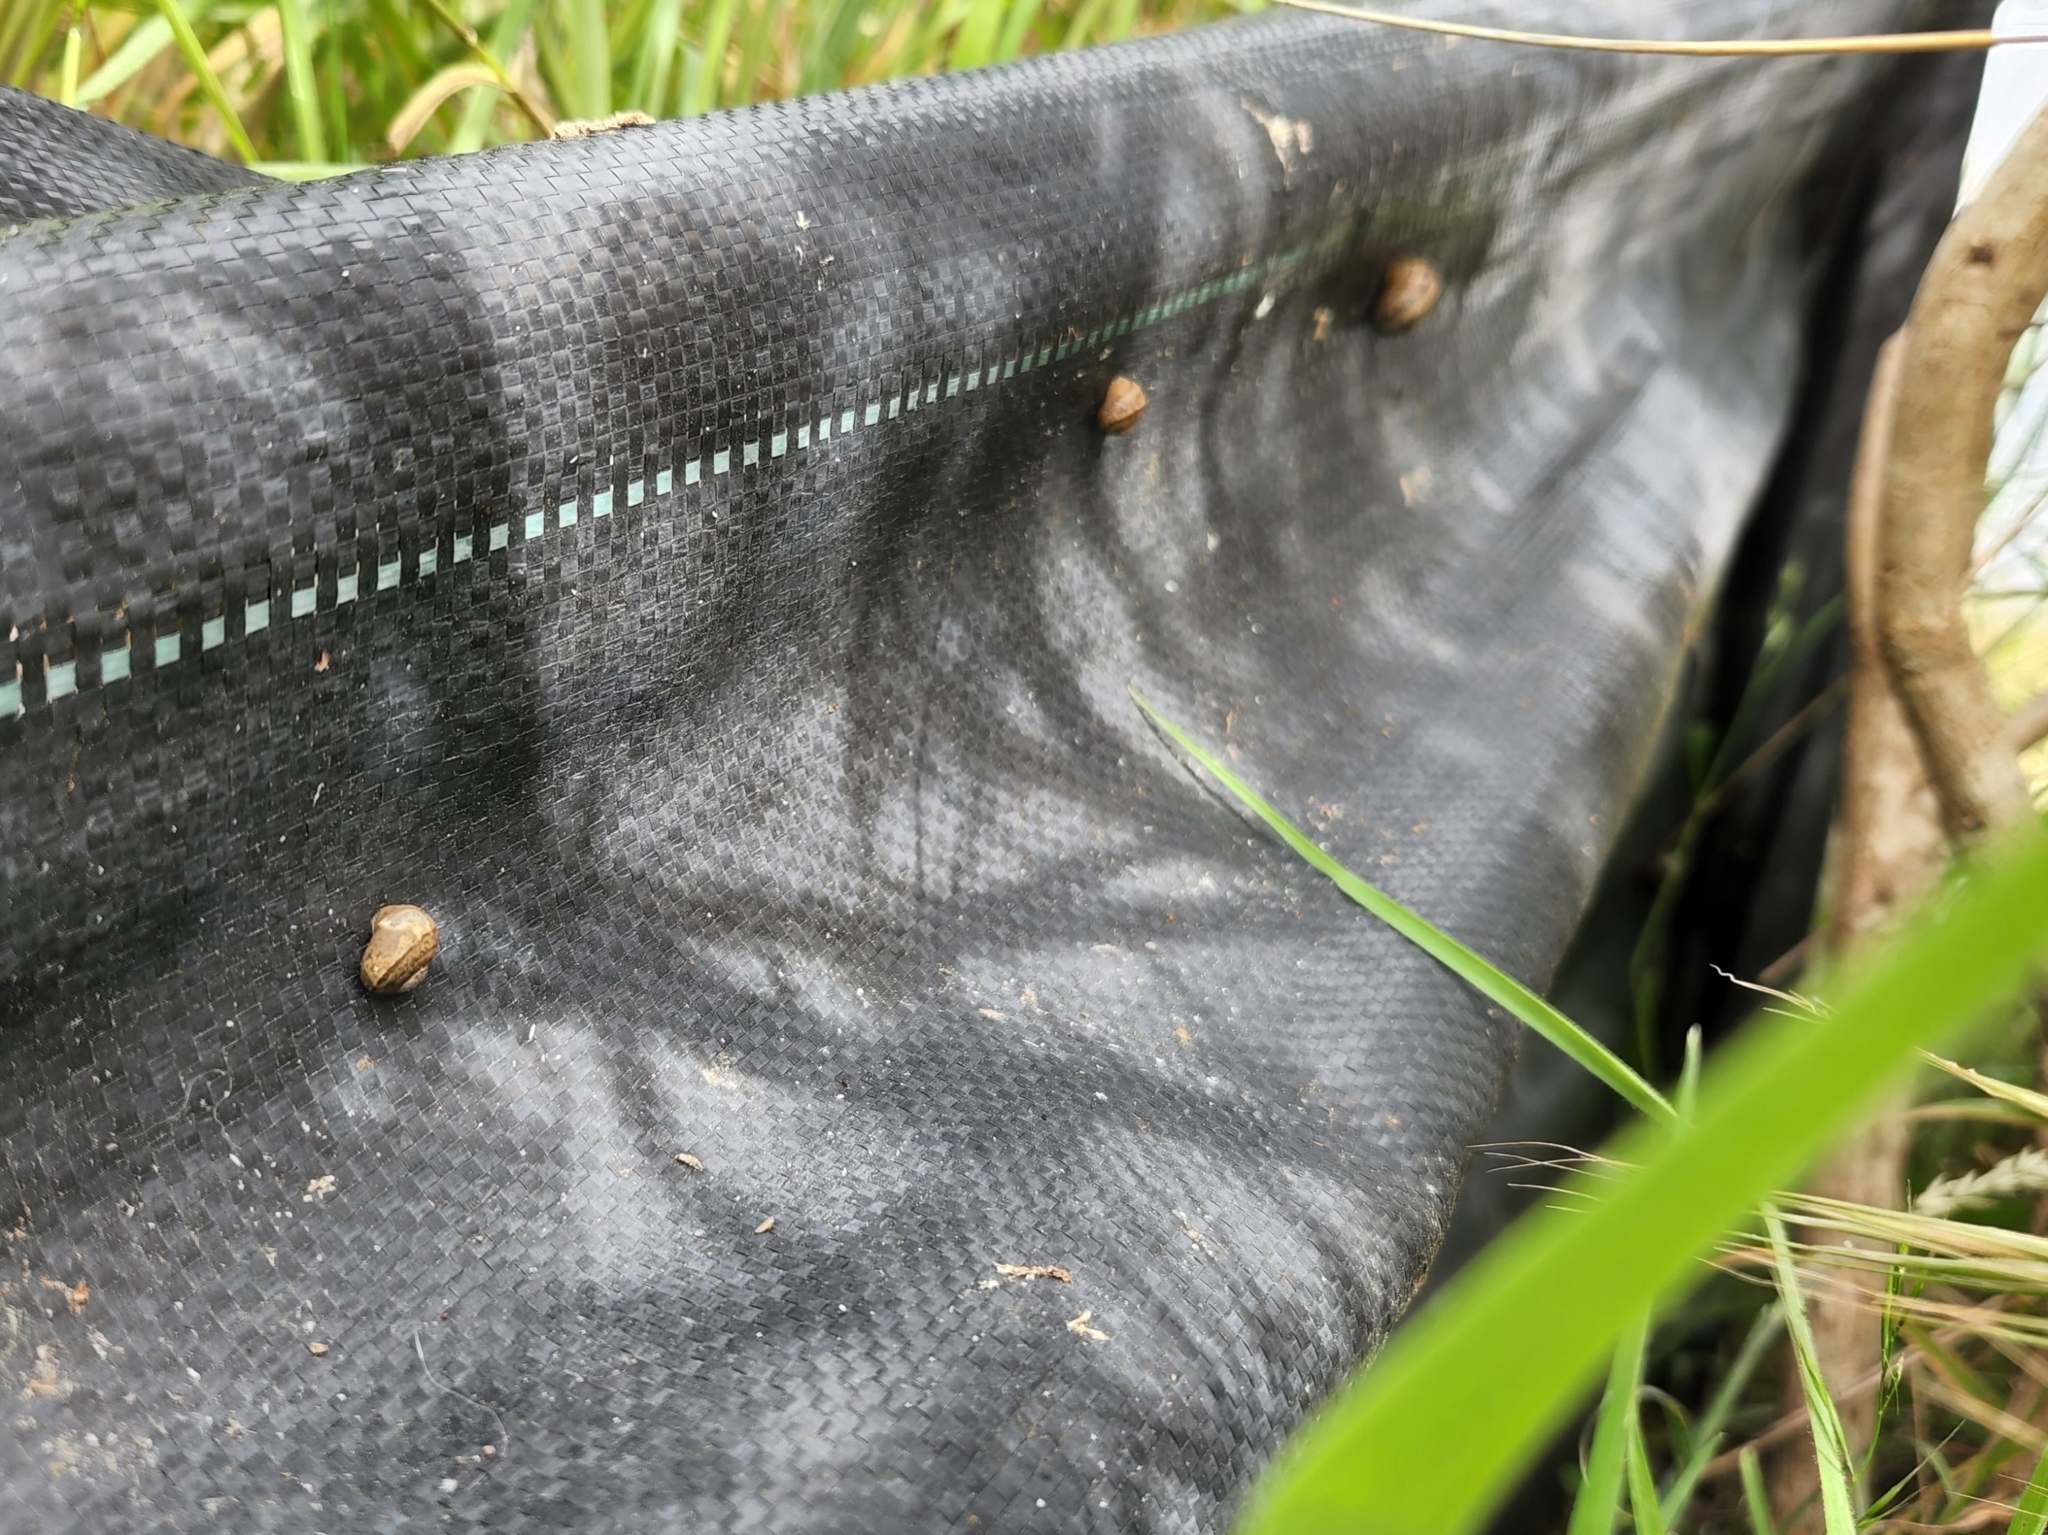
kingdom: Animalia
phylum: Mollusca
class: Gastropoda
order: Stylommatophora
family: Helicidae
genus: Cornu
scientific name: Cornu aspersum
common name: Brown garden snail
